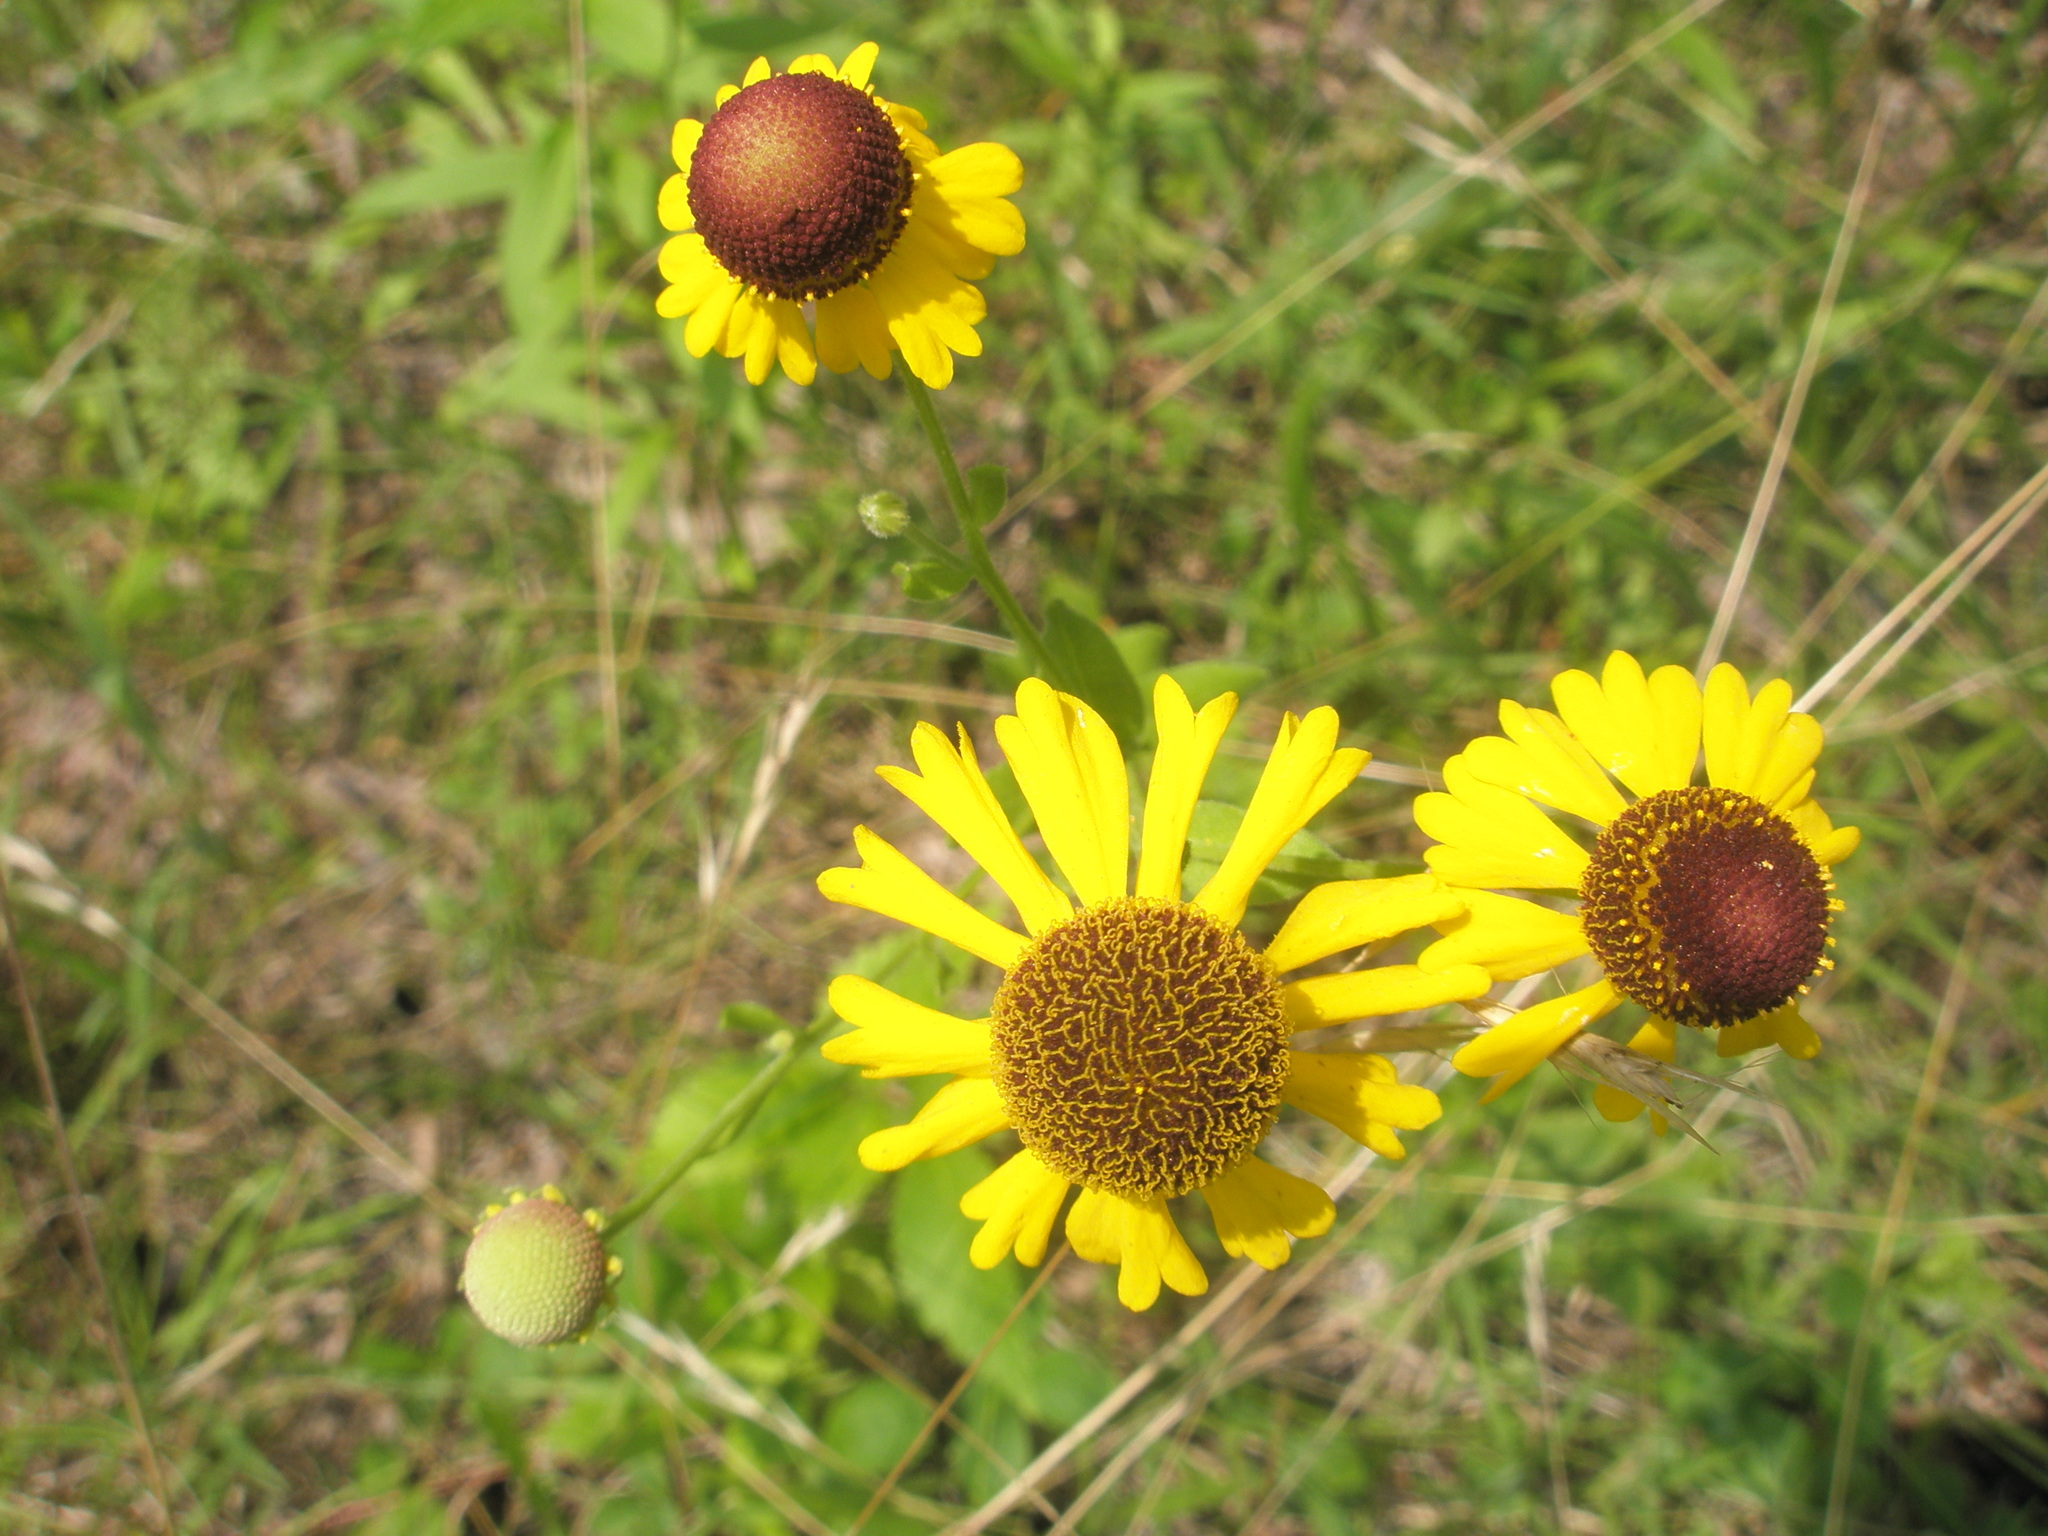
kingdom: Plantae
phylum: Tracheophyta
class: Magnoliopsida
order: Asterales
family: Asteraceae
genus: Helenium
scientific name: Helenium flexuosum
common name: Naked-flowered sneezeweed
